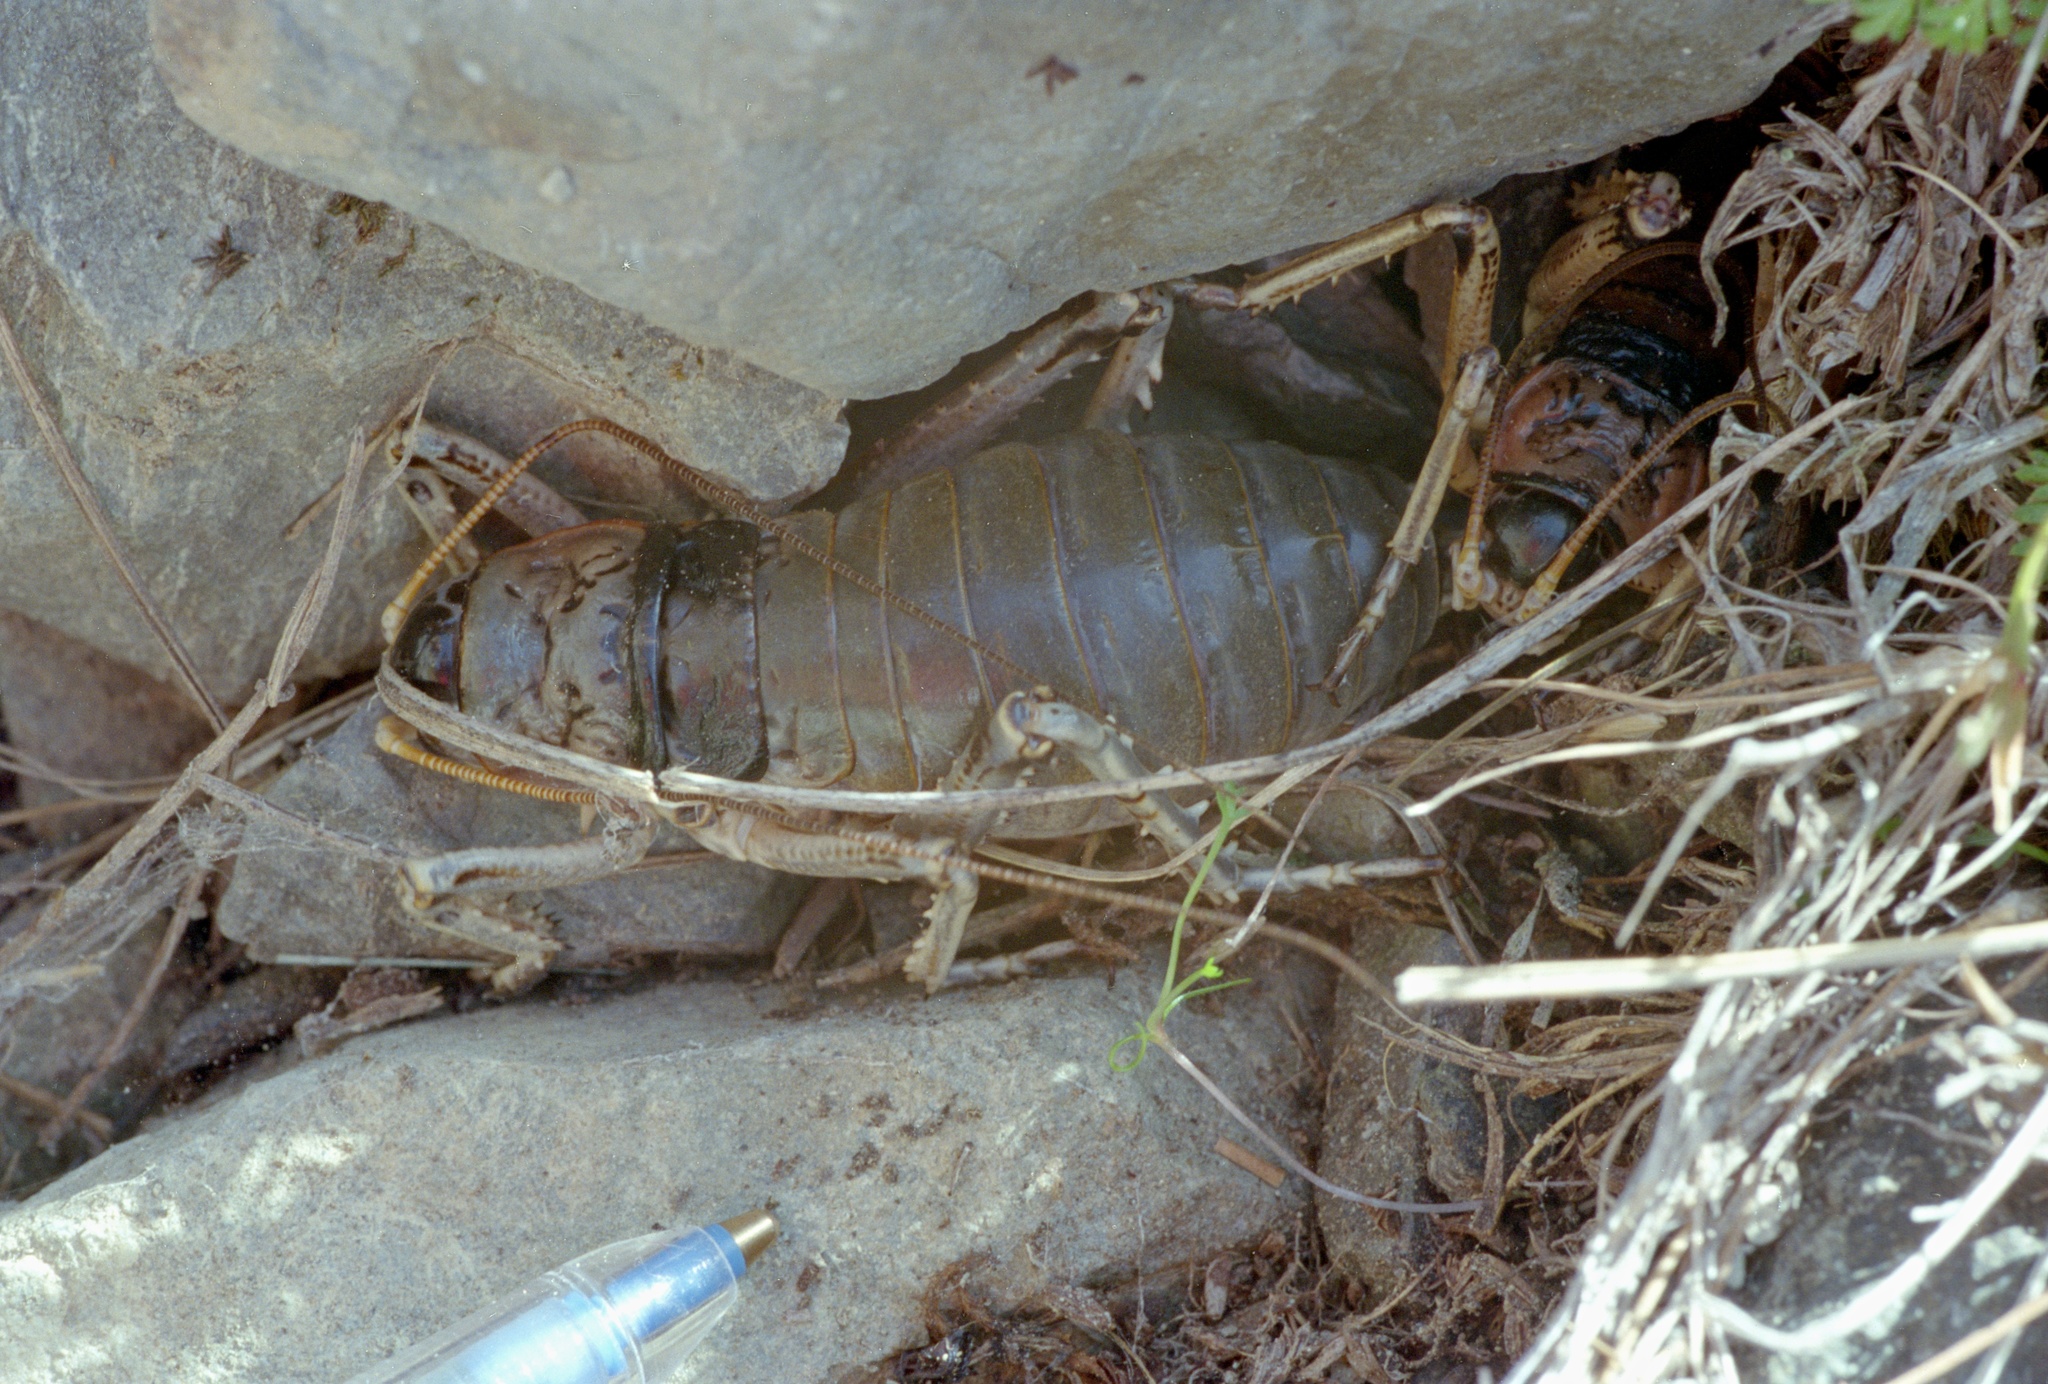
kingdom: Animalia
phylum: Arthropoda
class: Insecta
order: Orthoptera
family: Anostostomatidae
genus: Deinacrida
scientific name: Deinacrida connectens
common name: Scree weta
